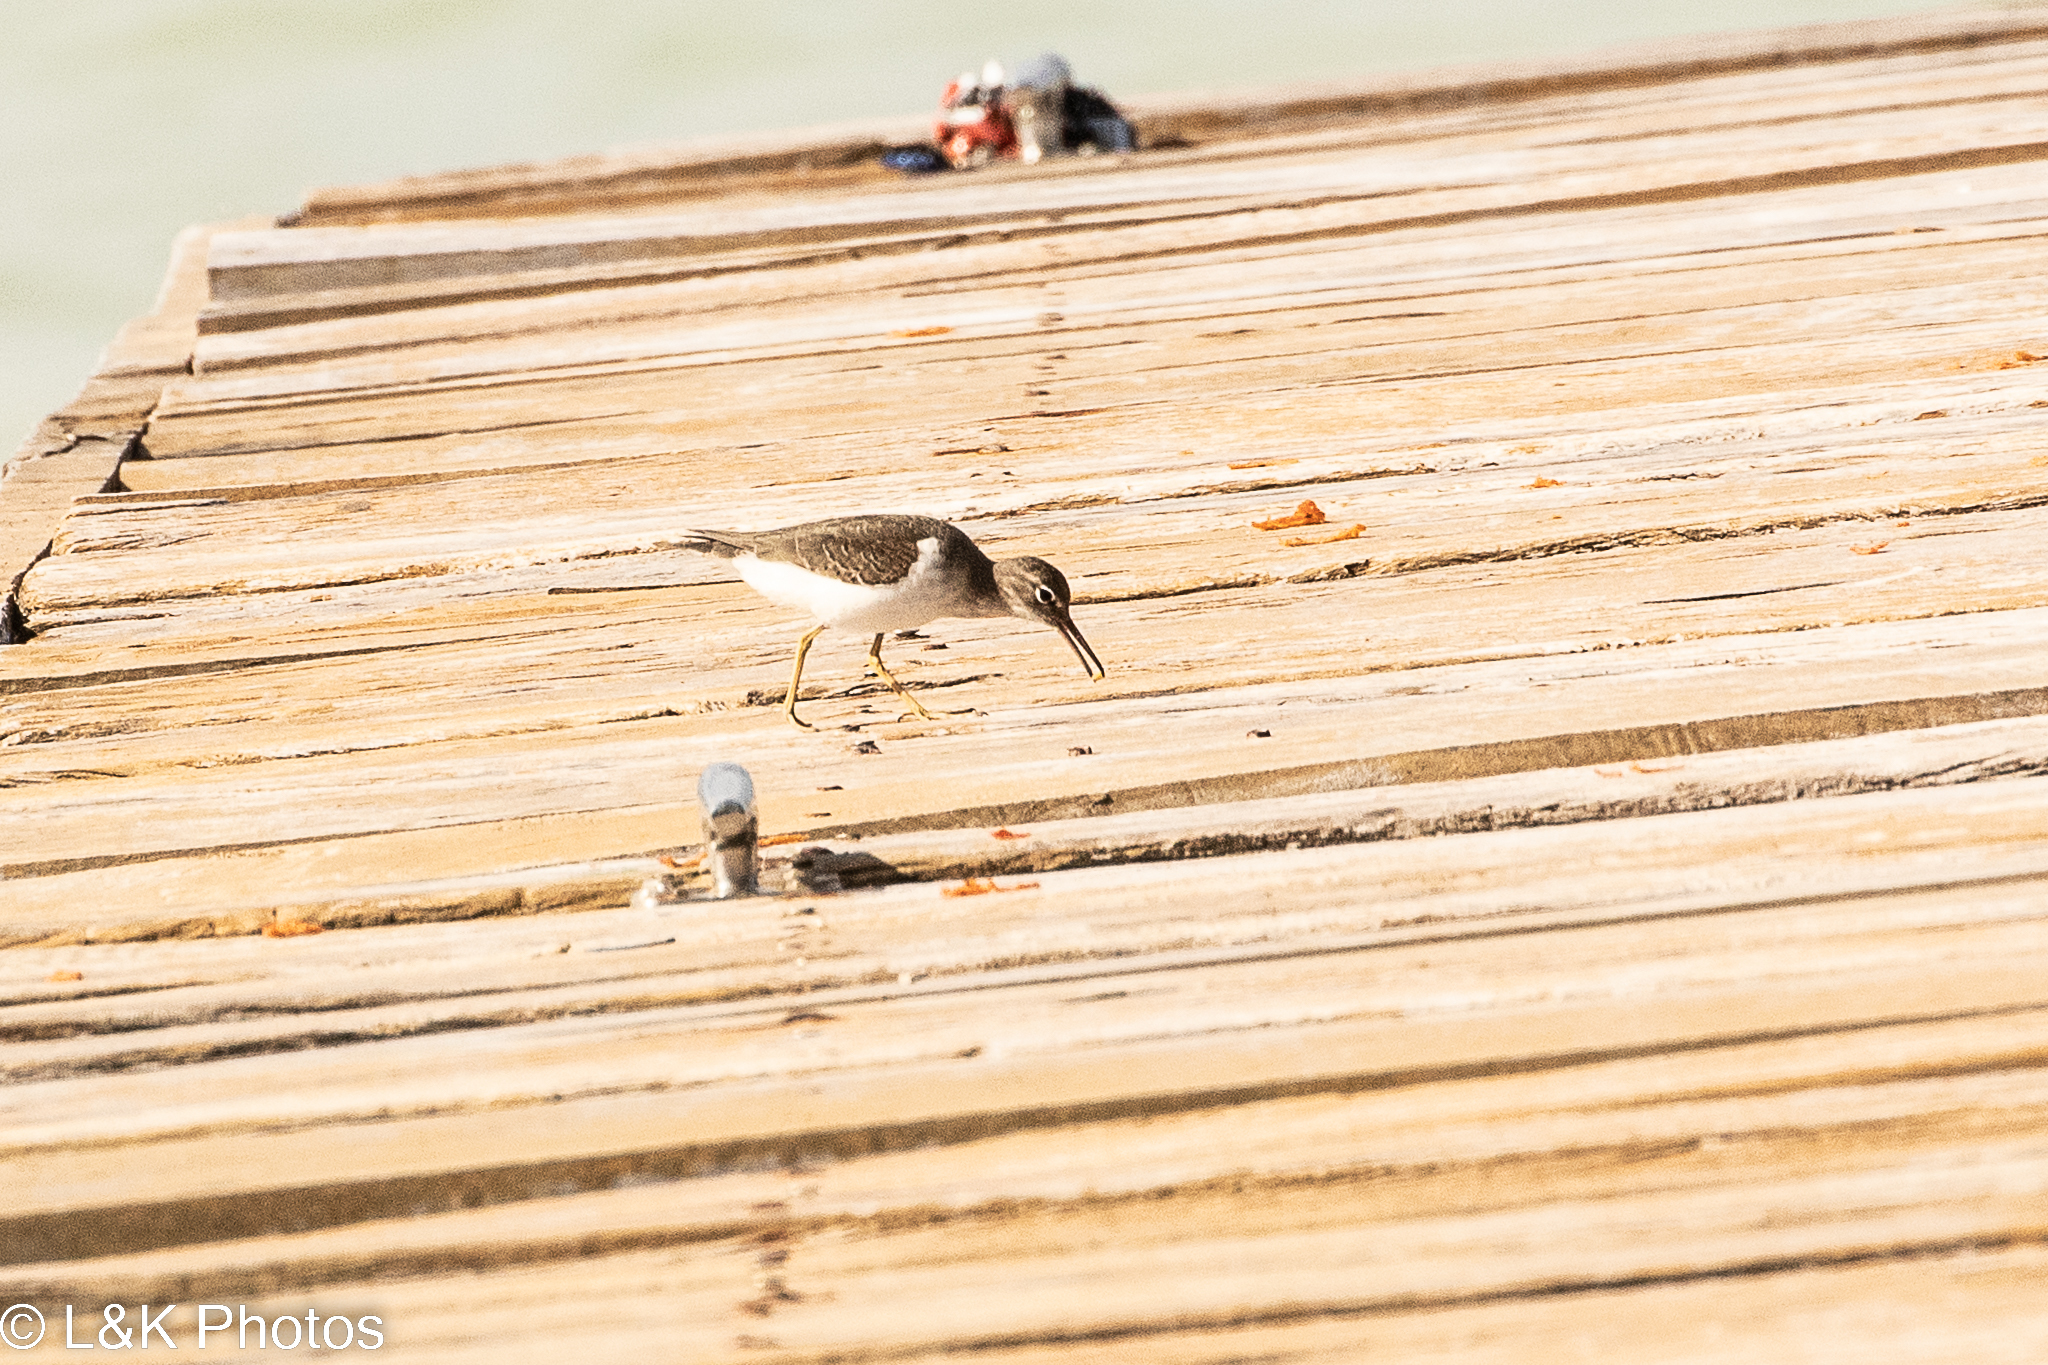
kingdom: Animalia
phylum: Chordata
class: Aves
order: Charadriiformes
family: Scolopacidae
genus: Actitis
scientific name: Actitis macularius
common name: Spotted sandpiper
